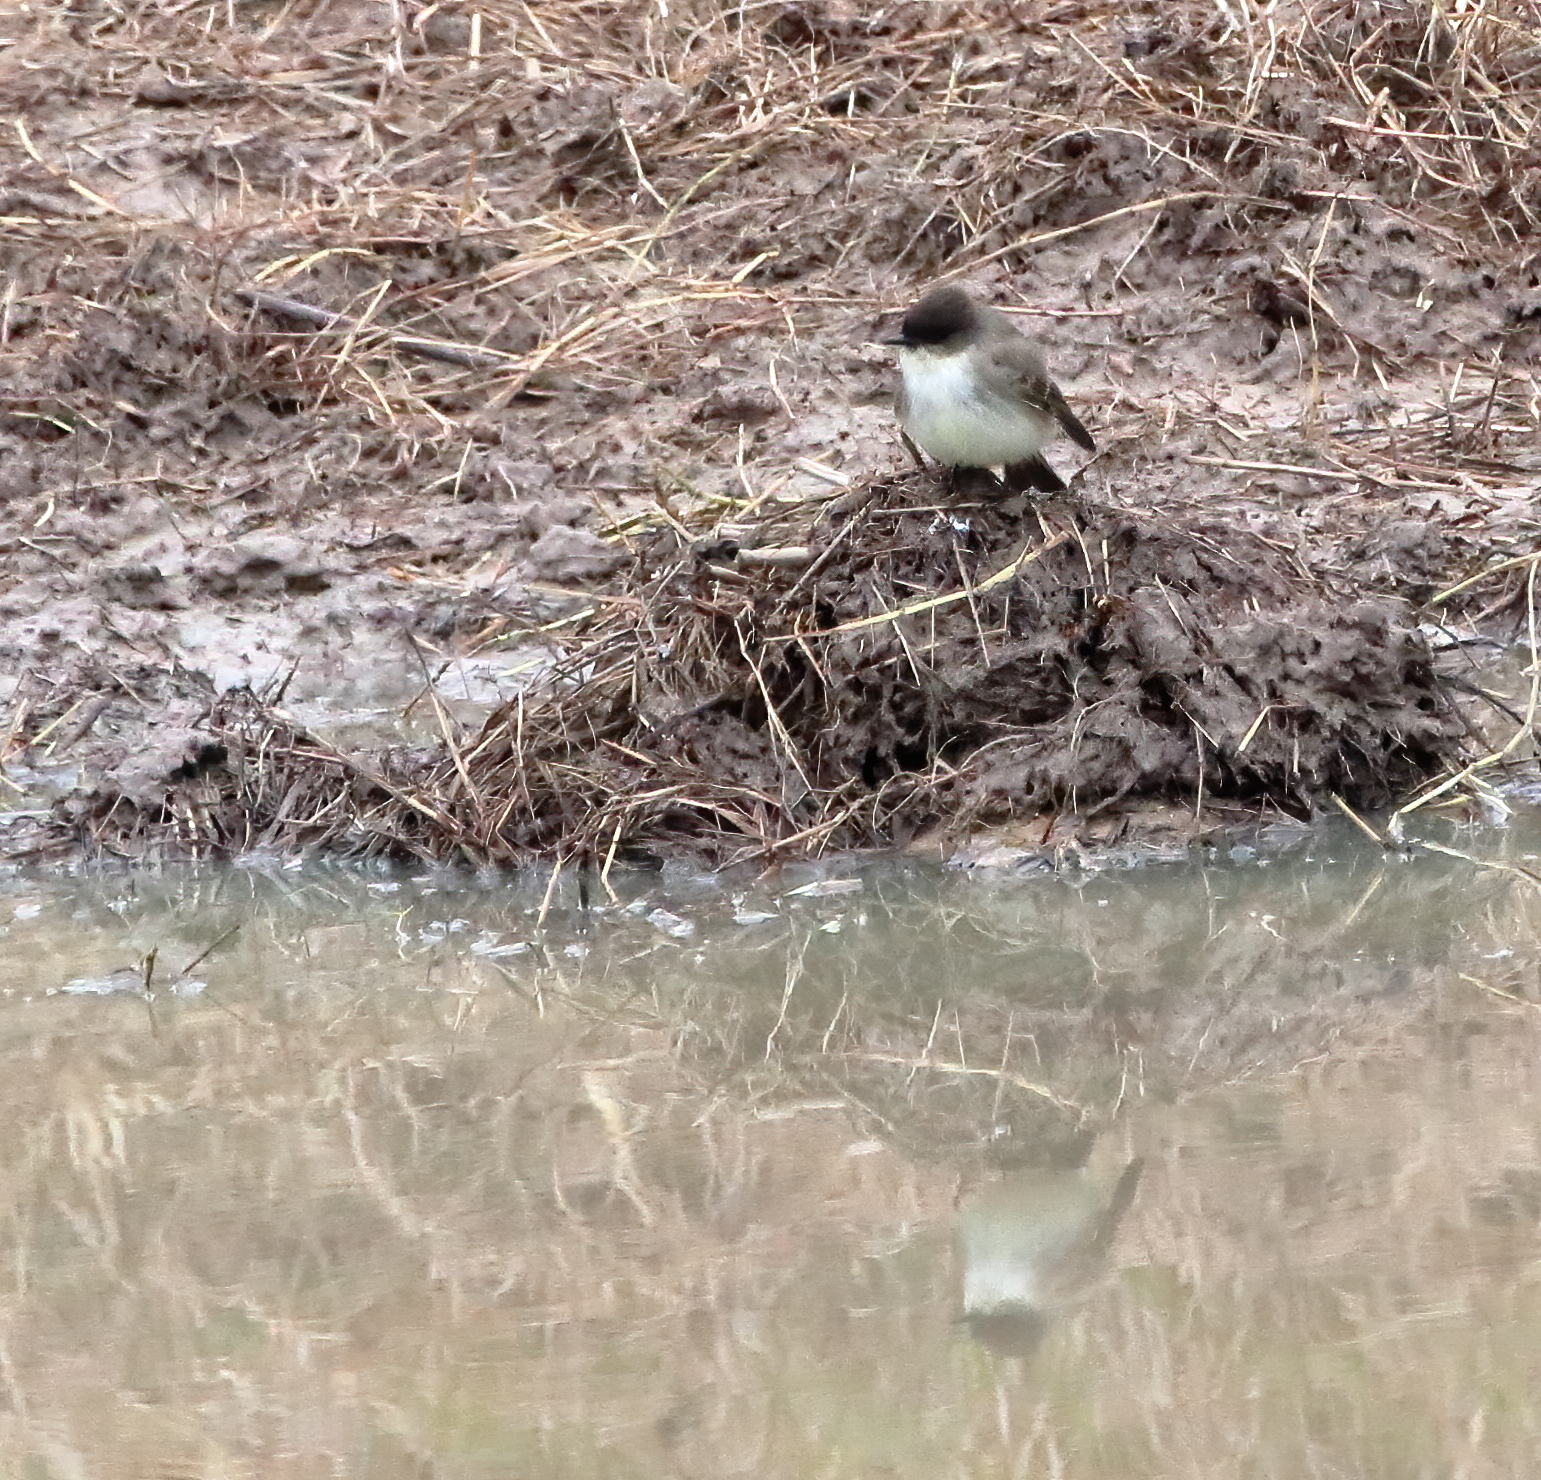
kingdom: Animalia
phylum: Chordata
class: Aves
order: Passeriformes
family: Tyrannidae
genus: Sayornis
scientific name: Sayornis phoebe
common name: Eastern phoebe
